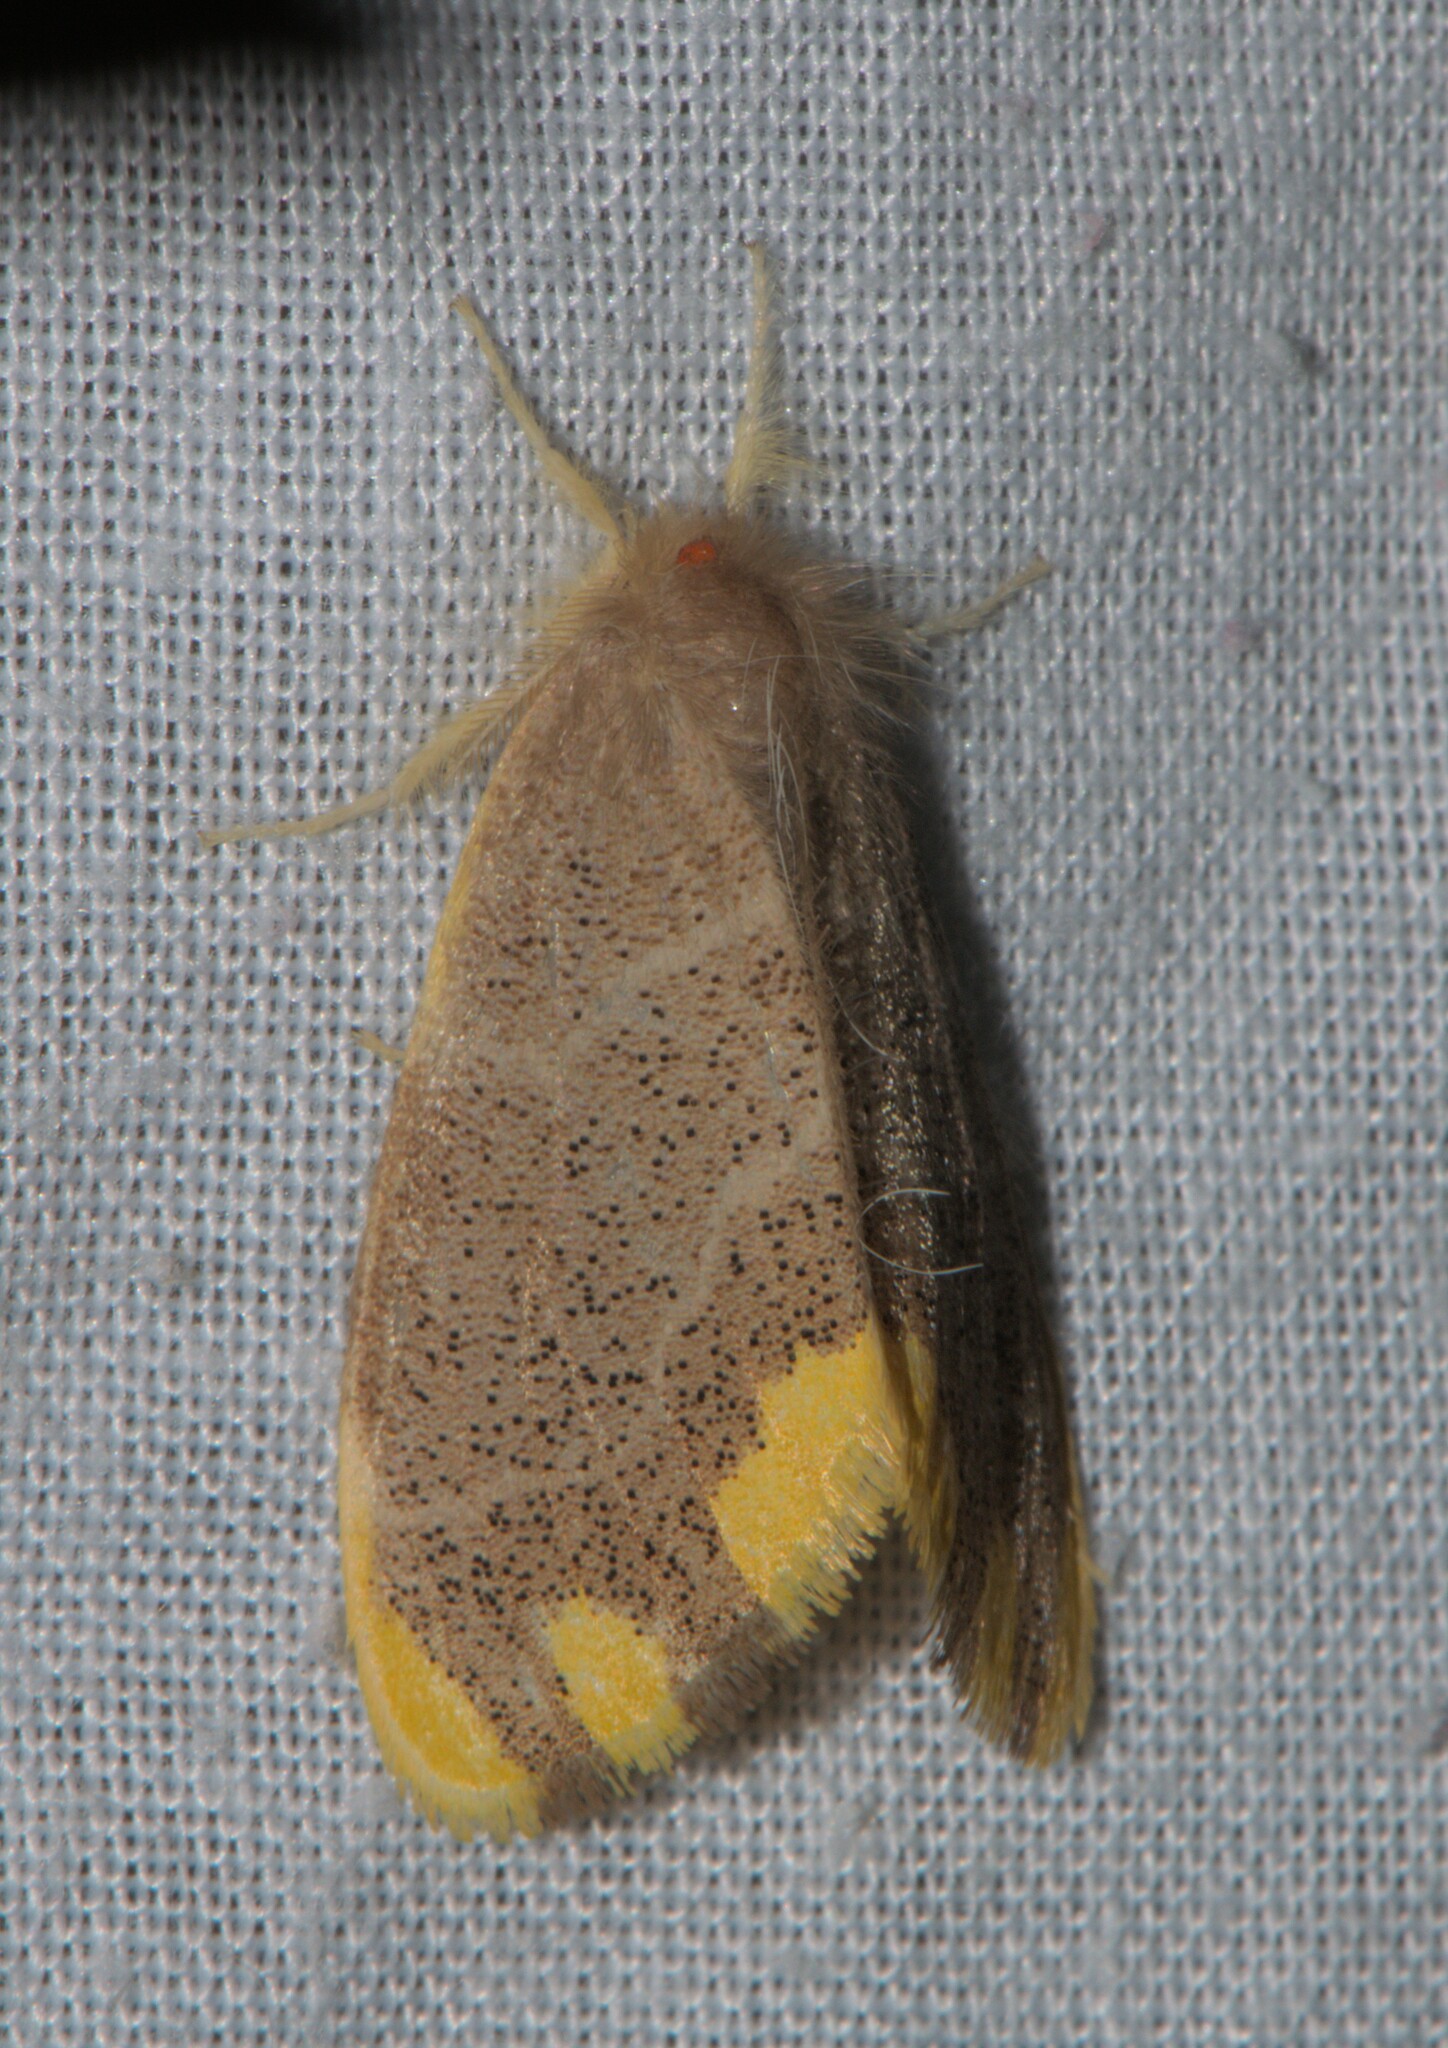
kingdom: Animalia
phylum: Arthropoda
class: Insecta
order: Lepidoptera
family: Erebidae
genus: Orvasca
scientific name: Orvasca subnotata
